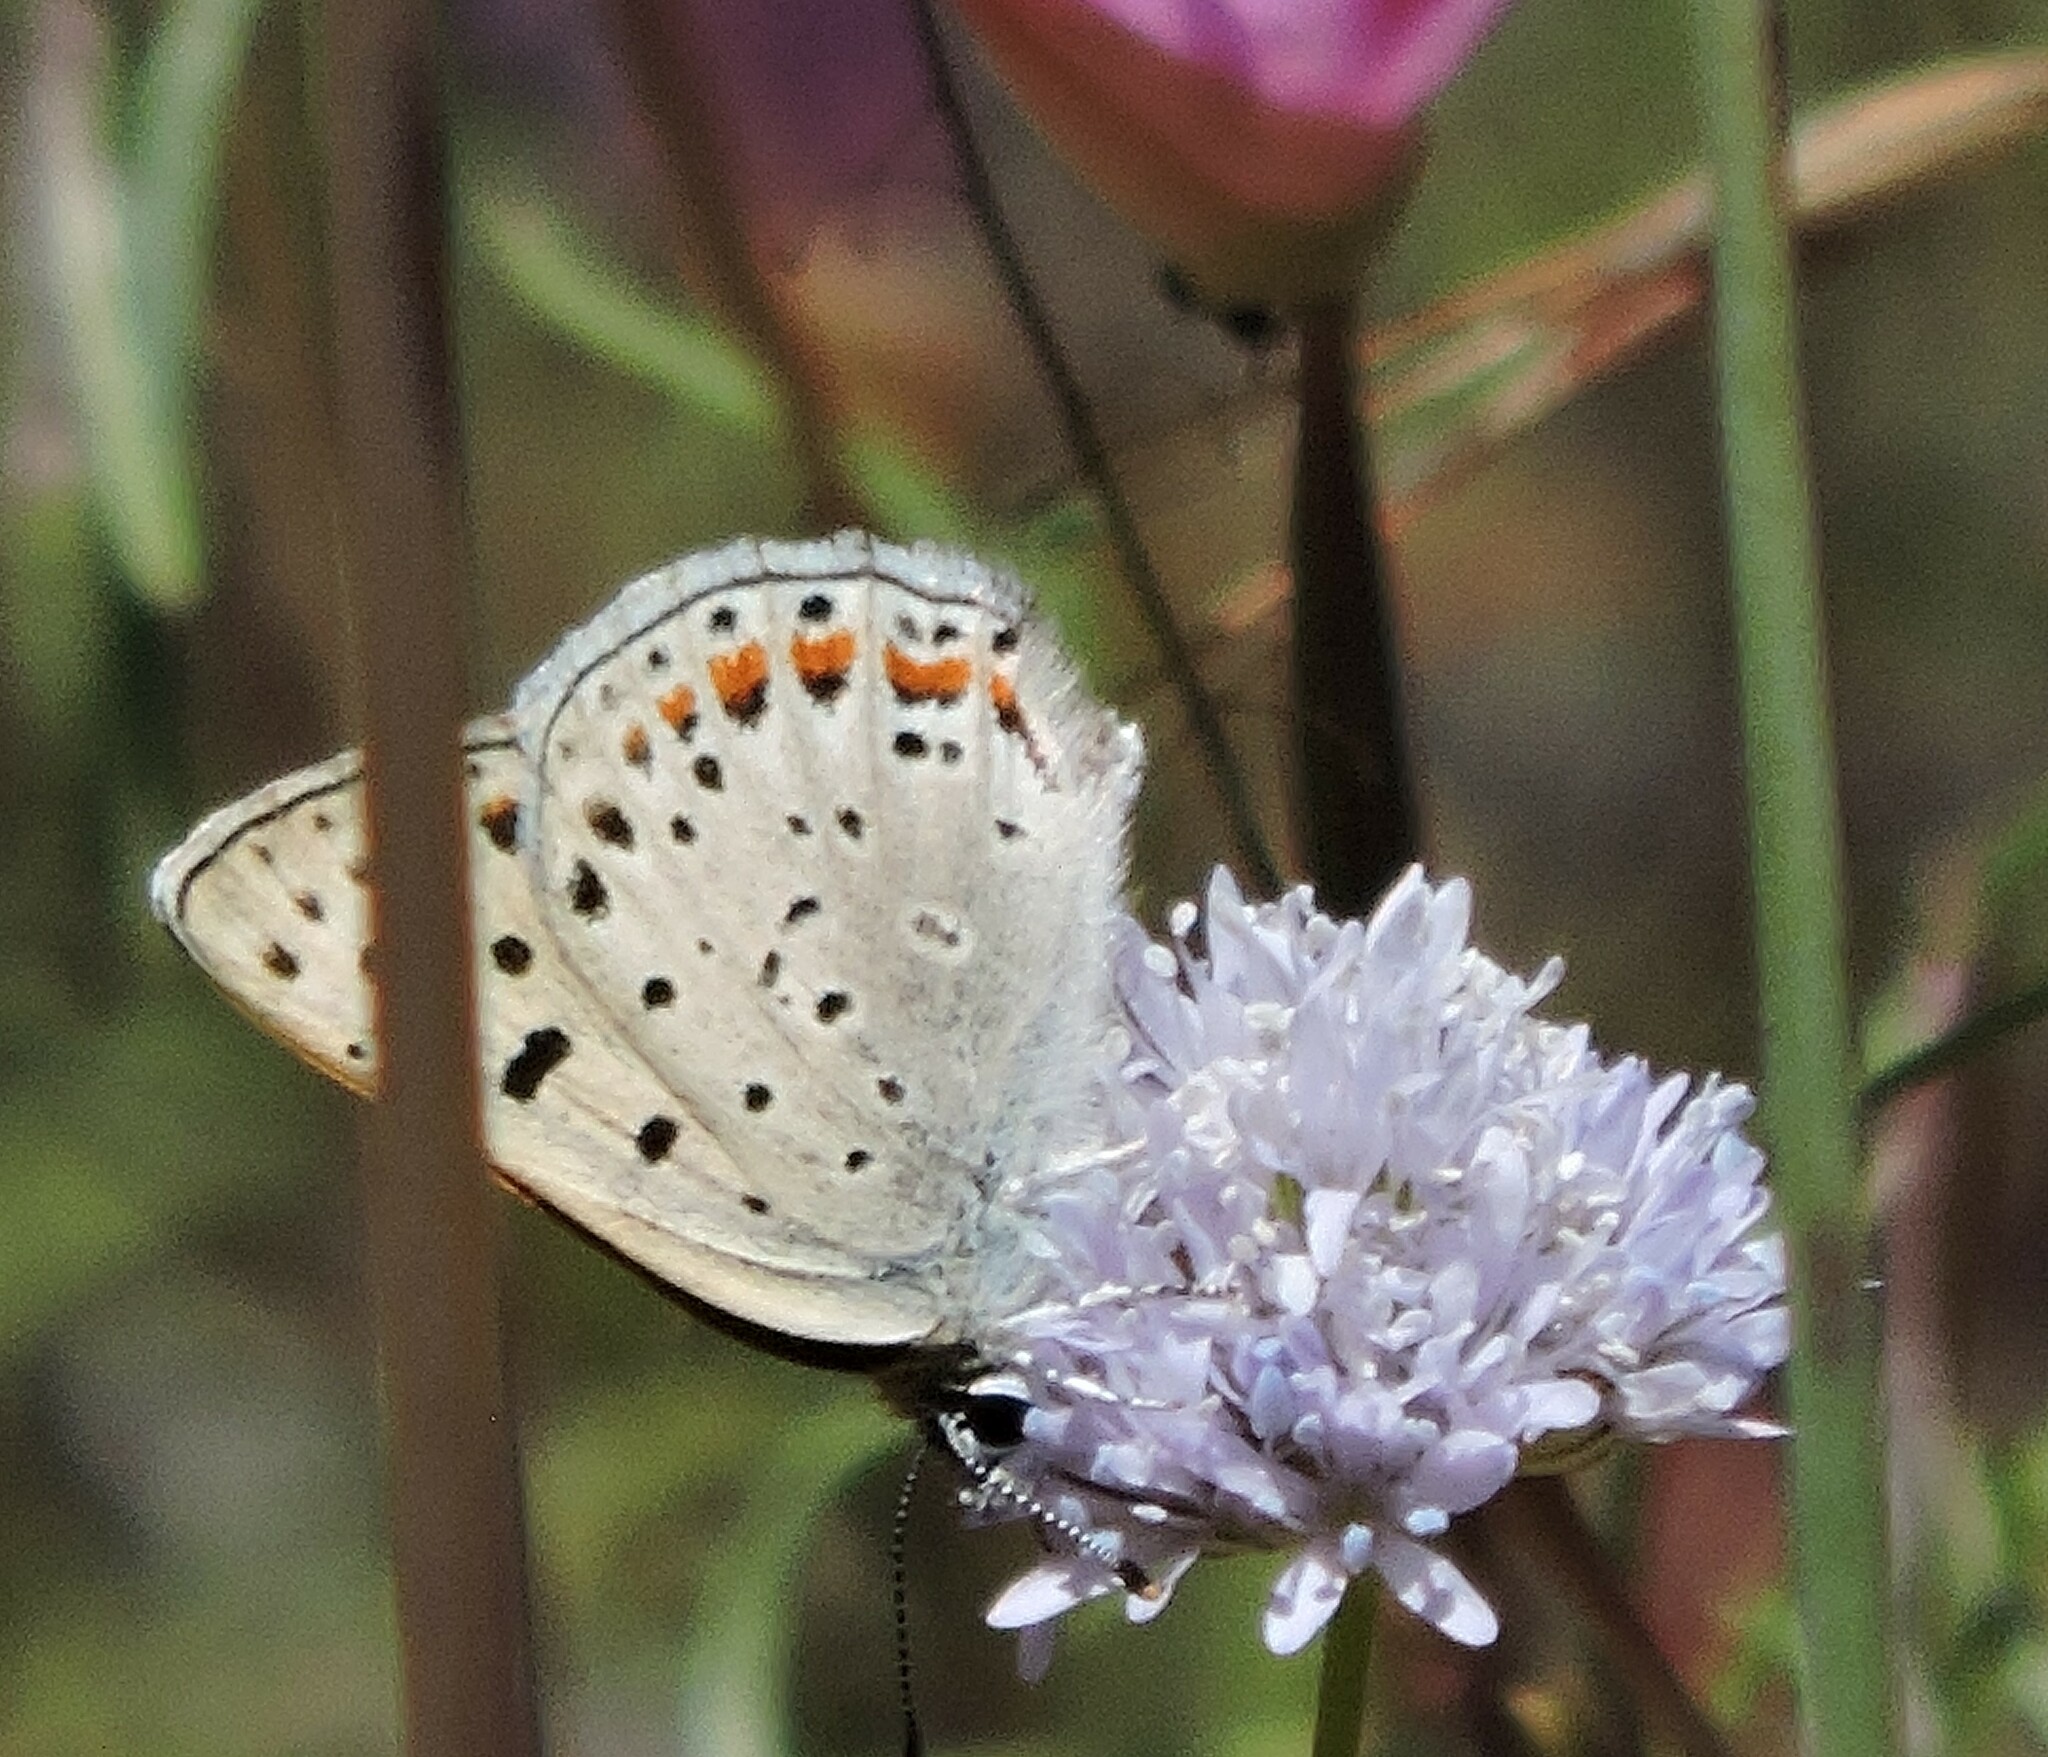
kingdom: Animalia
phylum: Arthropoda
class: Insecta
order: Lepidoptera
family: Lycaenidae
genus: Tharsalea
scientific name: Tharsalea gorgon
